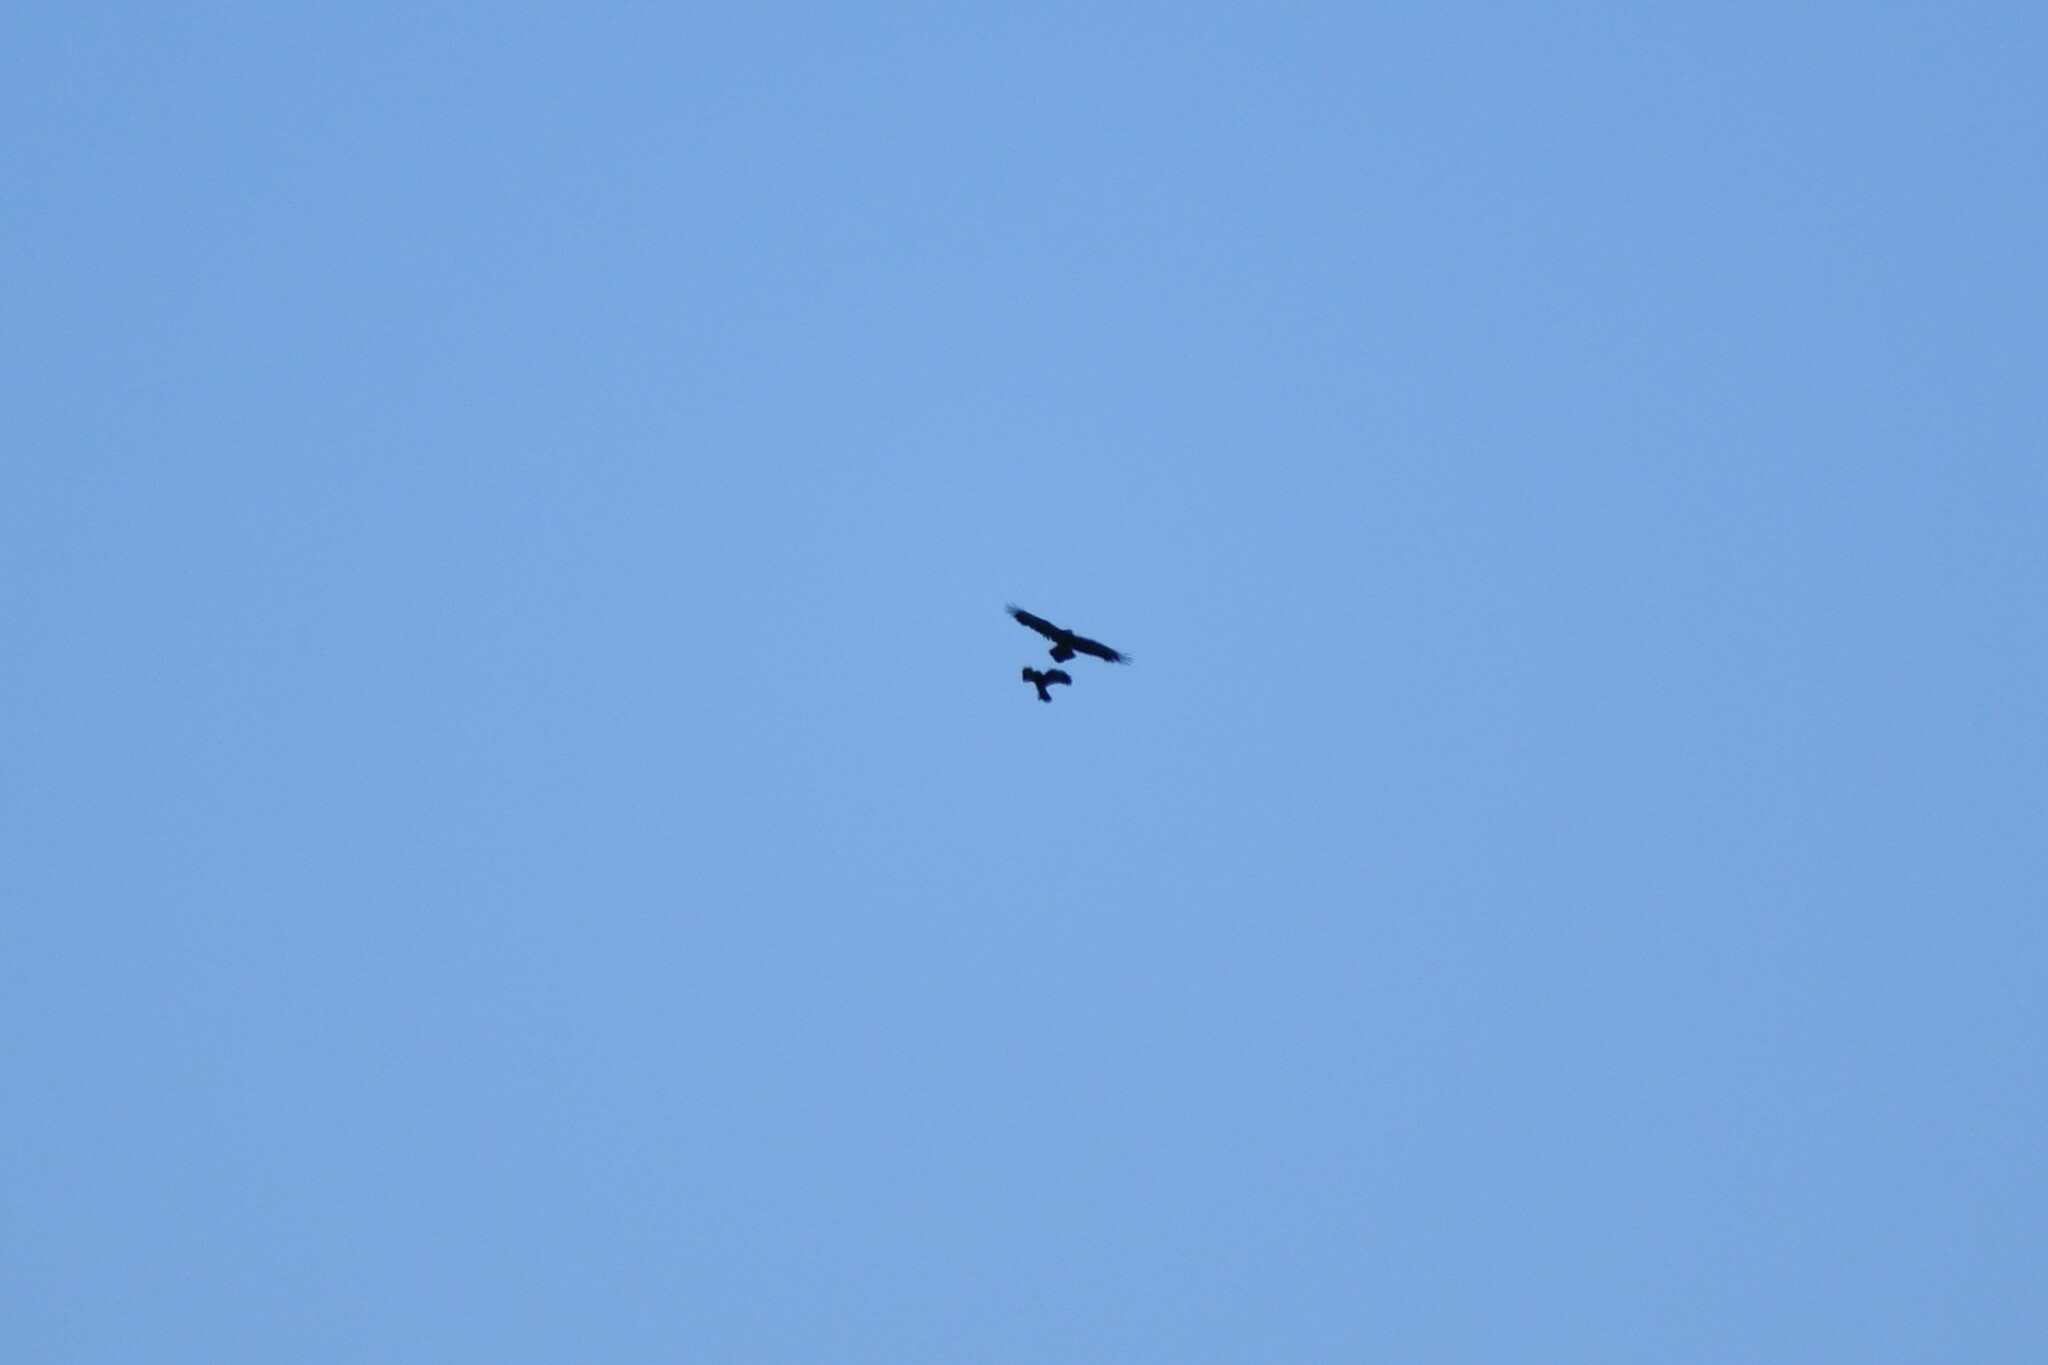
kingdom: Animalia
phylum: Chordata
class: Aves
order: Passeriformes
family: Corvidae
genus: Corvus
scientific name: Corvus corax
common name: Common raven
